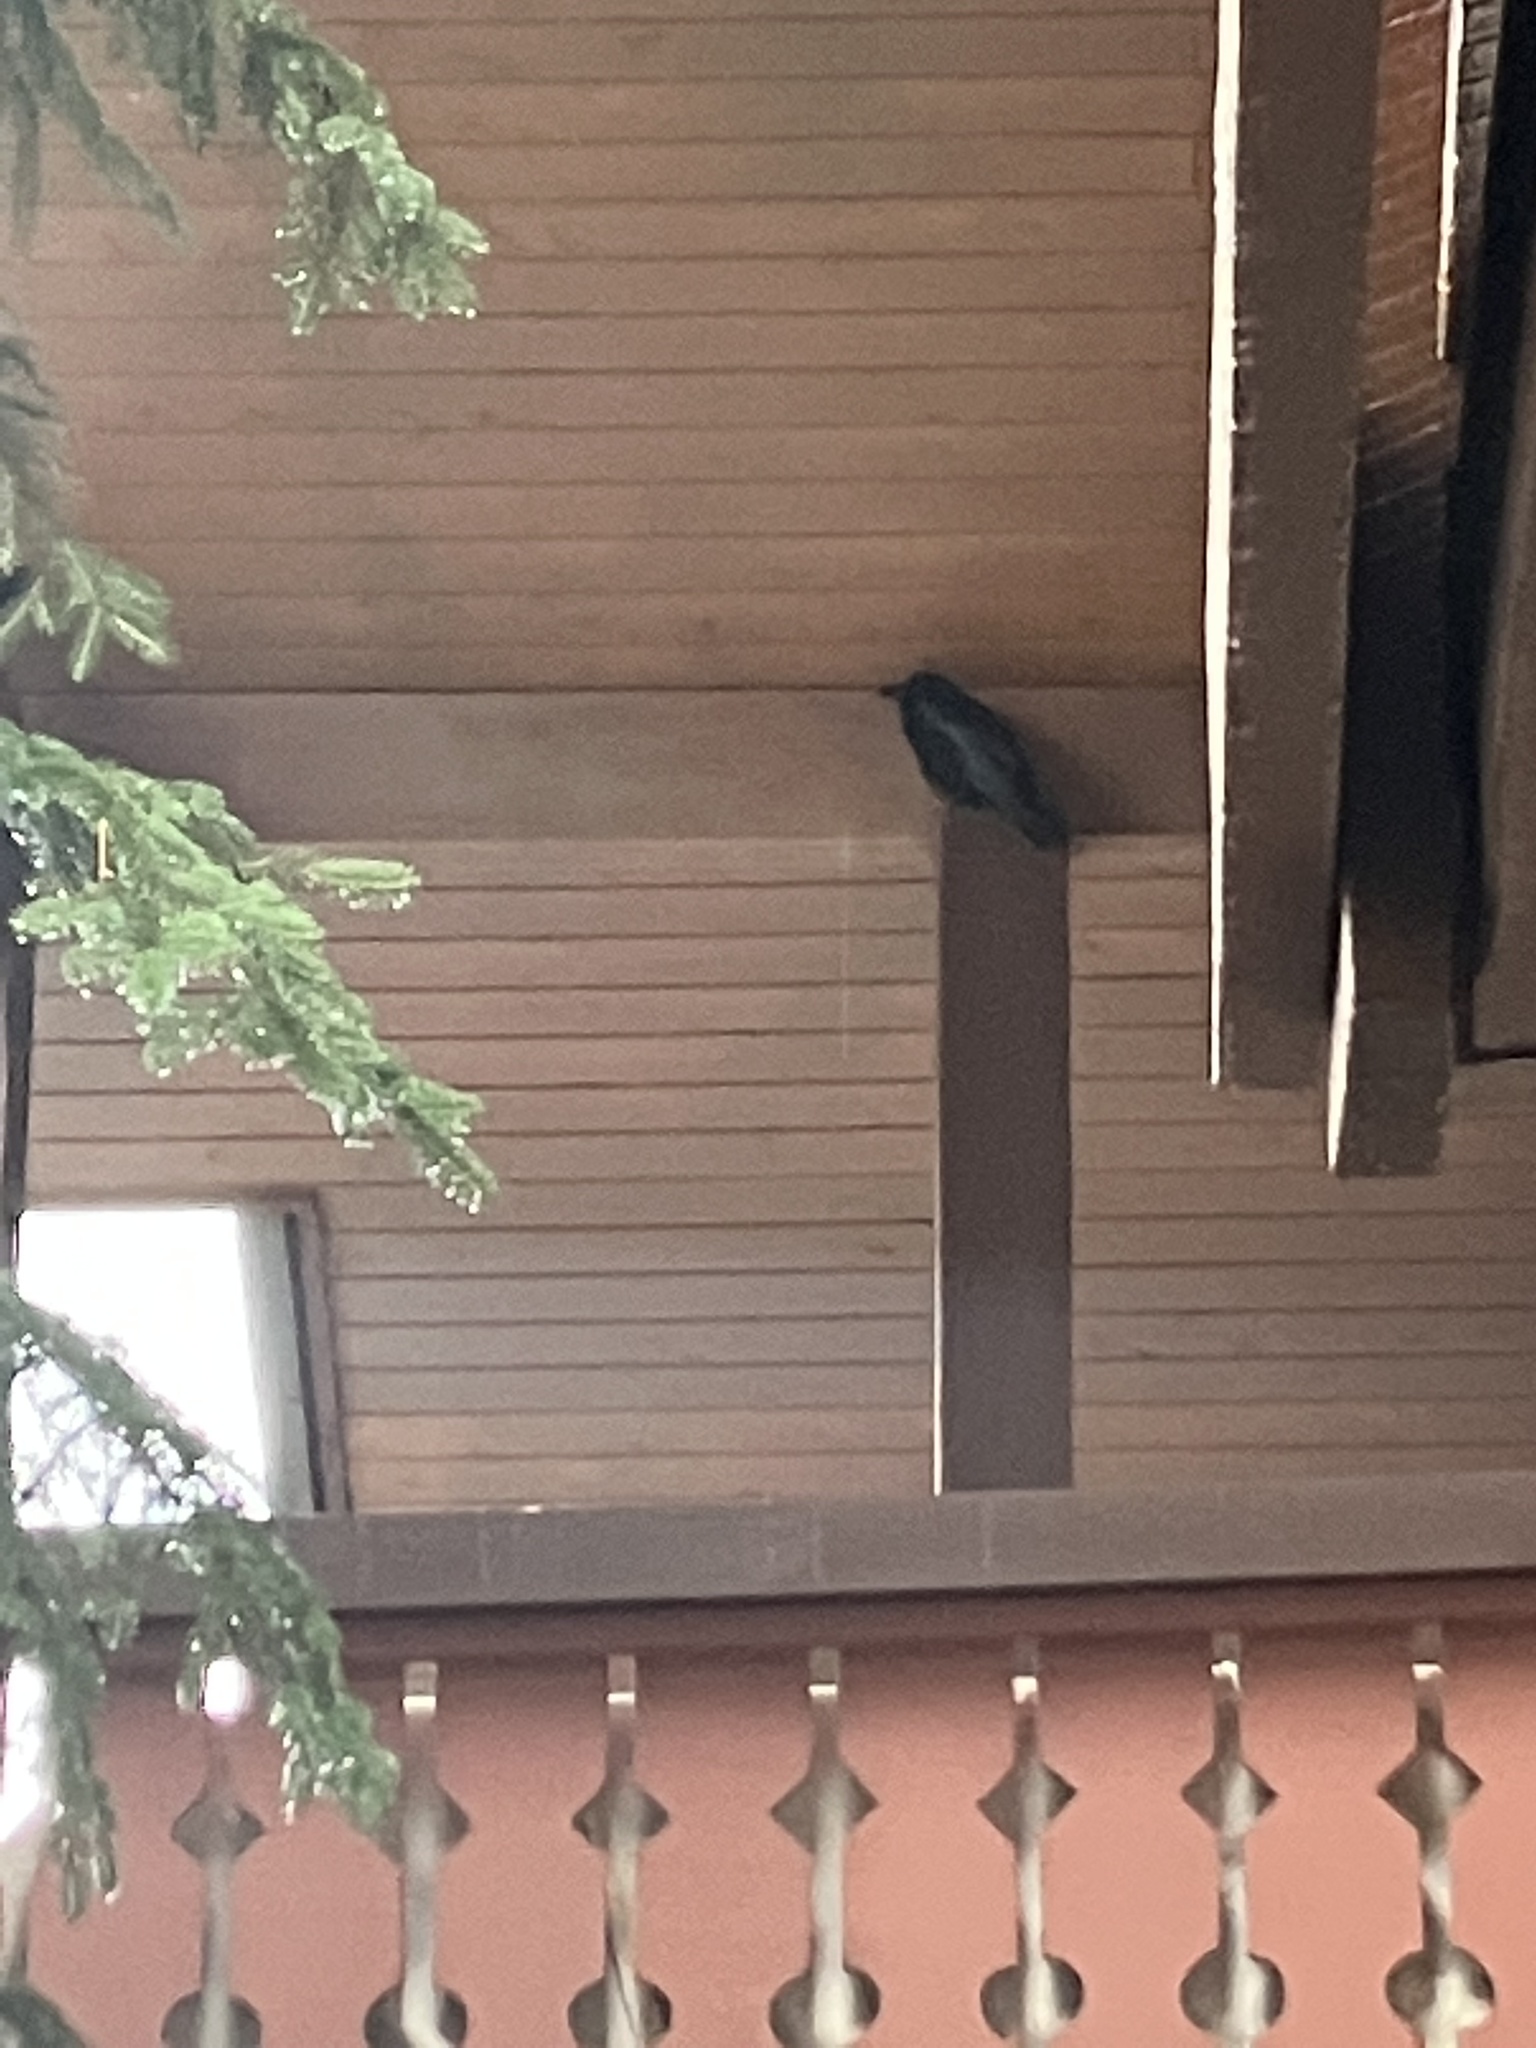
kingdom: Animalia
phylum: Chordata
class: Aves
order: Passeriformes
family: Corvidae
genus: Corvus
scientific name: Corvus corax
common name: Common raven
